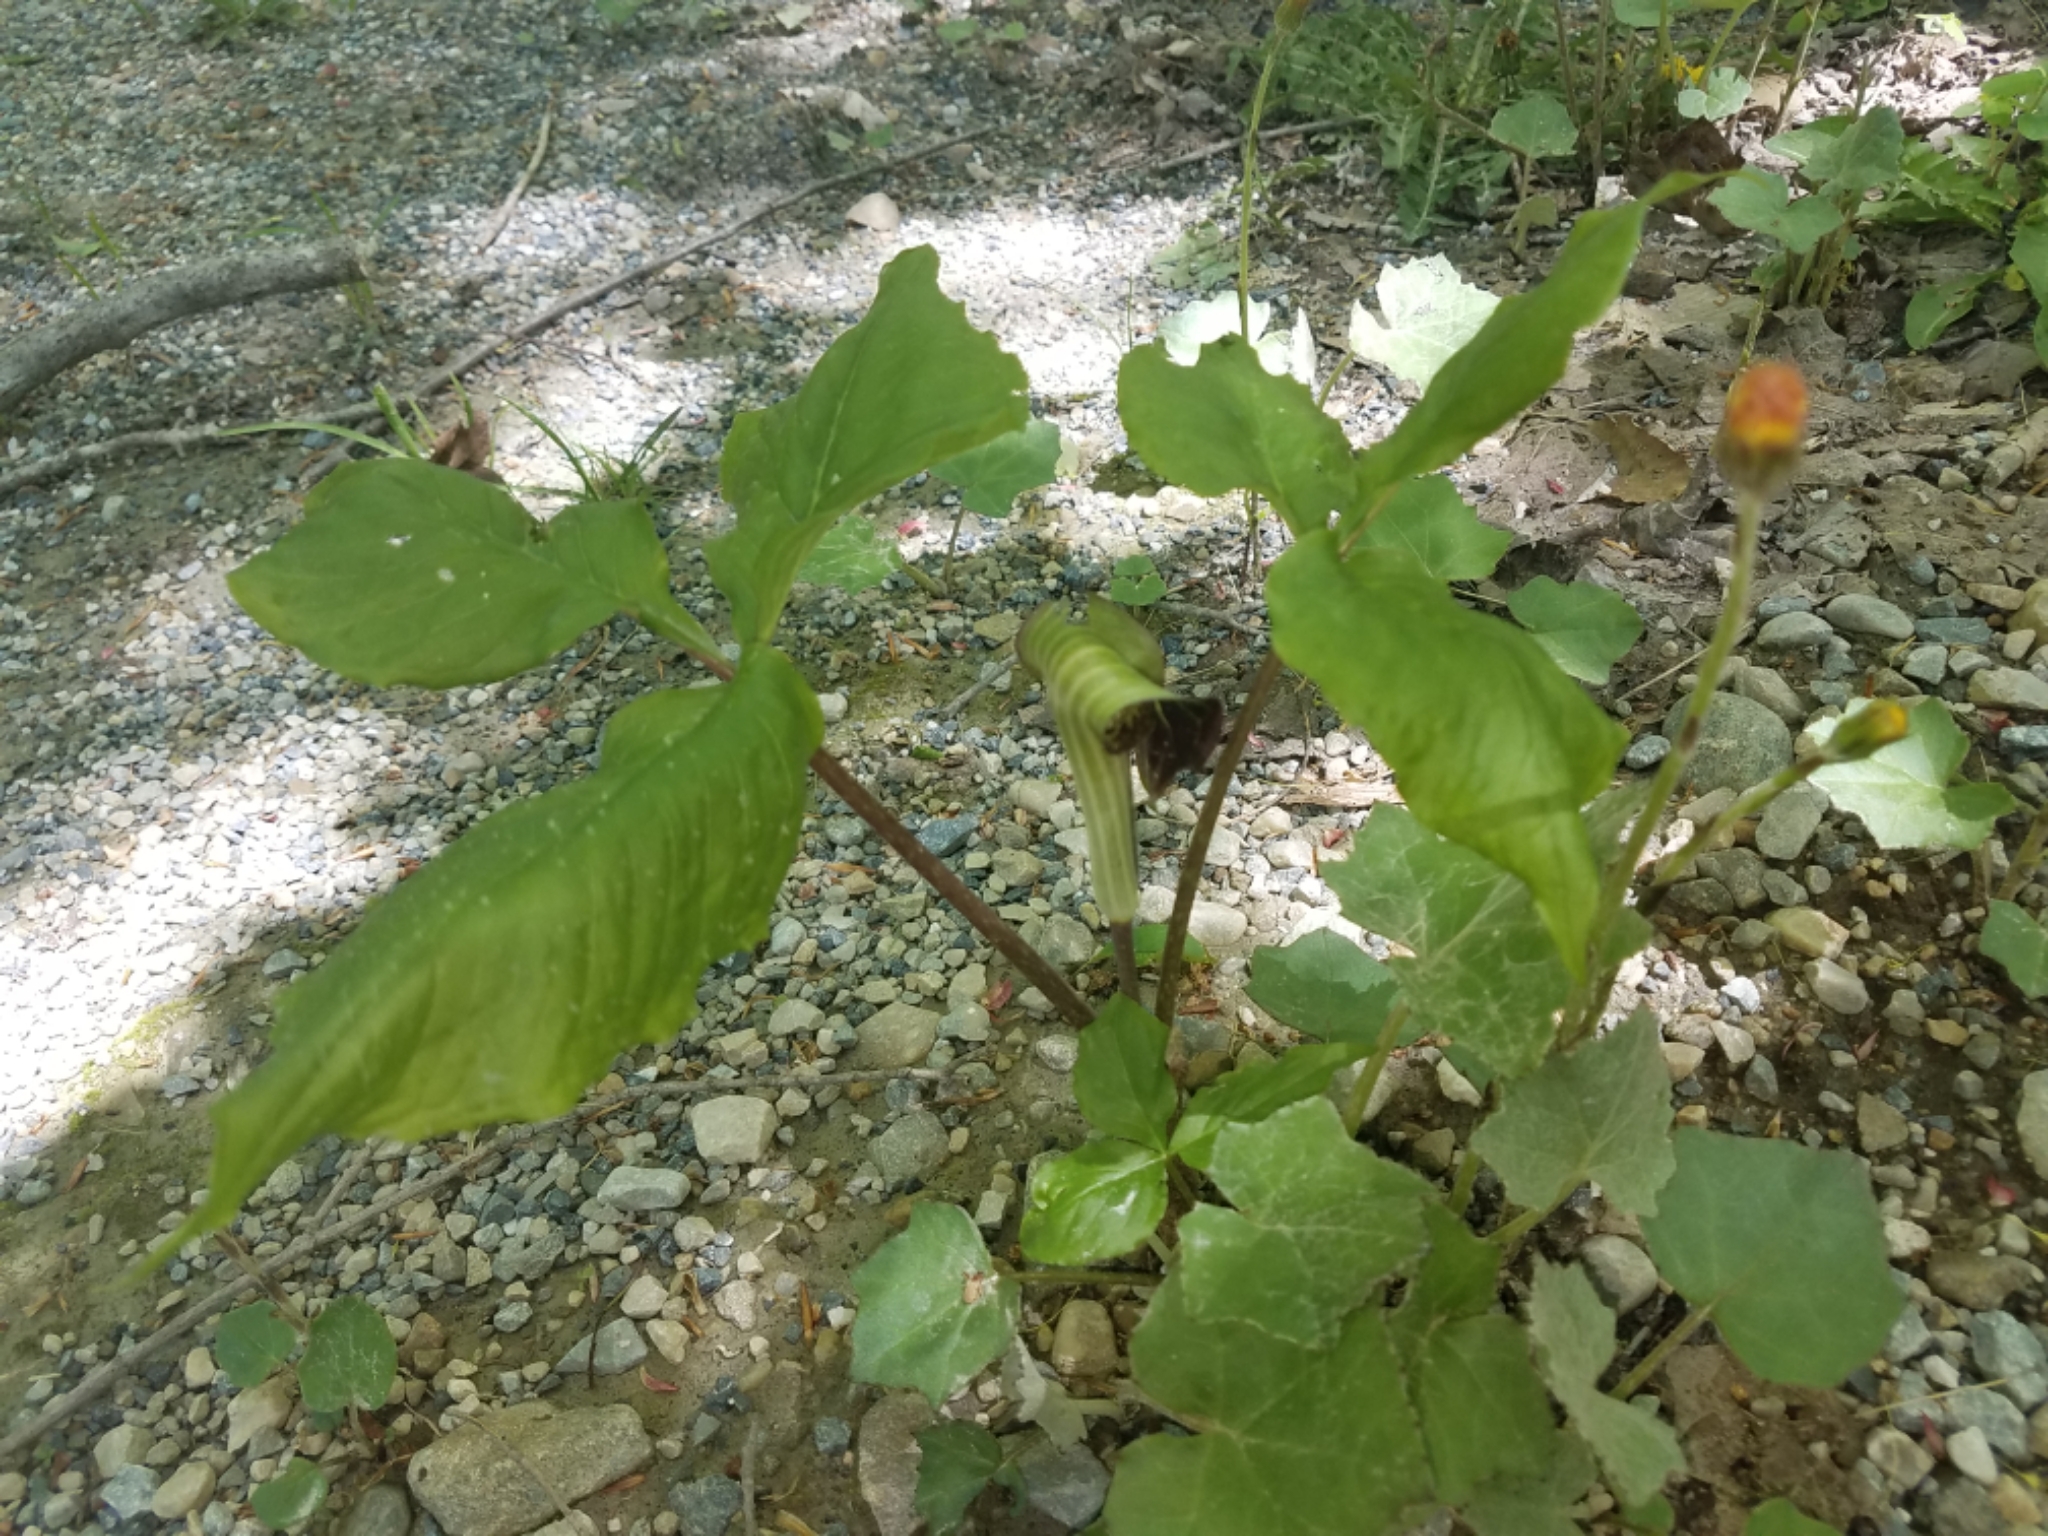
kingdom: Plantae
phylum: Tracheophyta
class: Liliopsida
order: Alismatales
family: Araceae
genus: Arisaema
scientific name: Arisaema triphyllum
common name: Jack-in-the-pulpit
